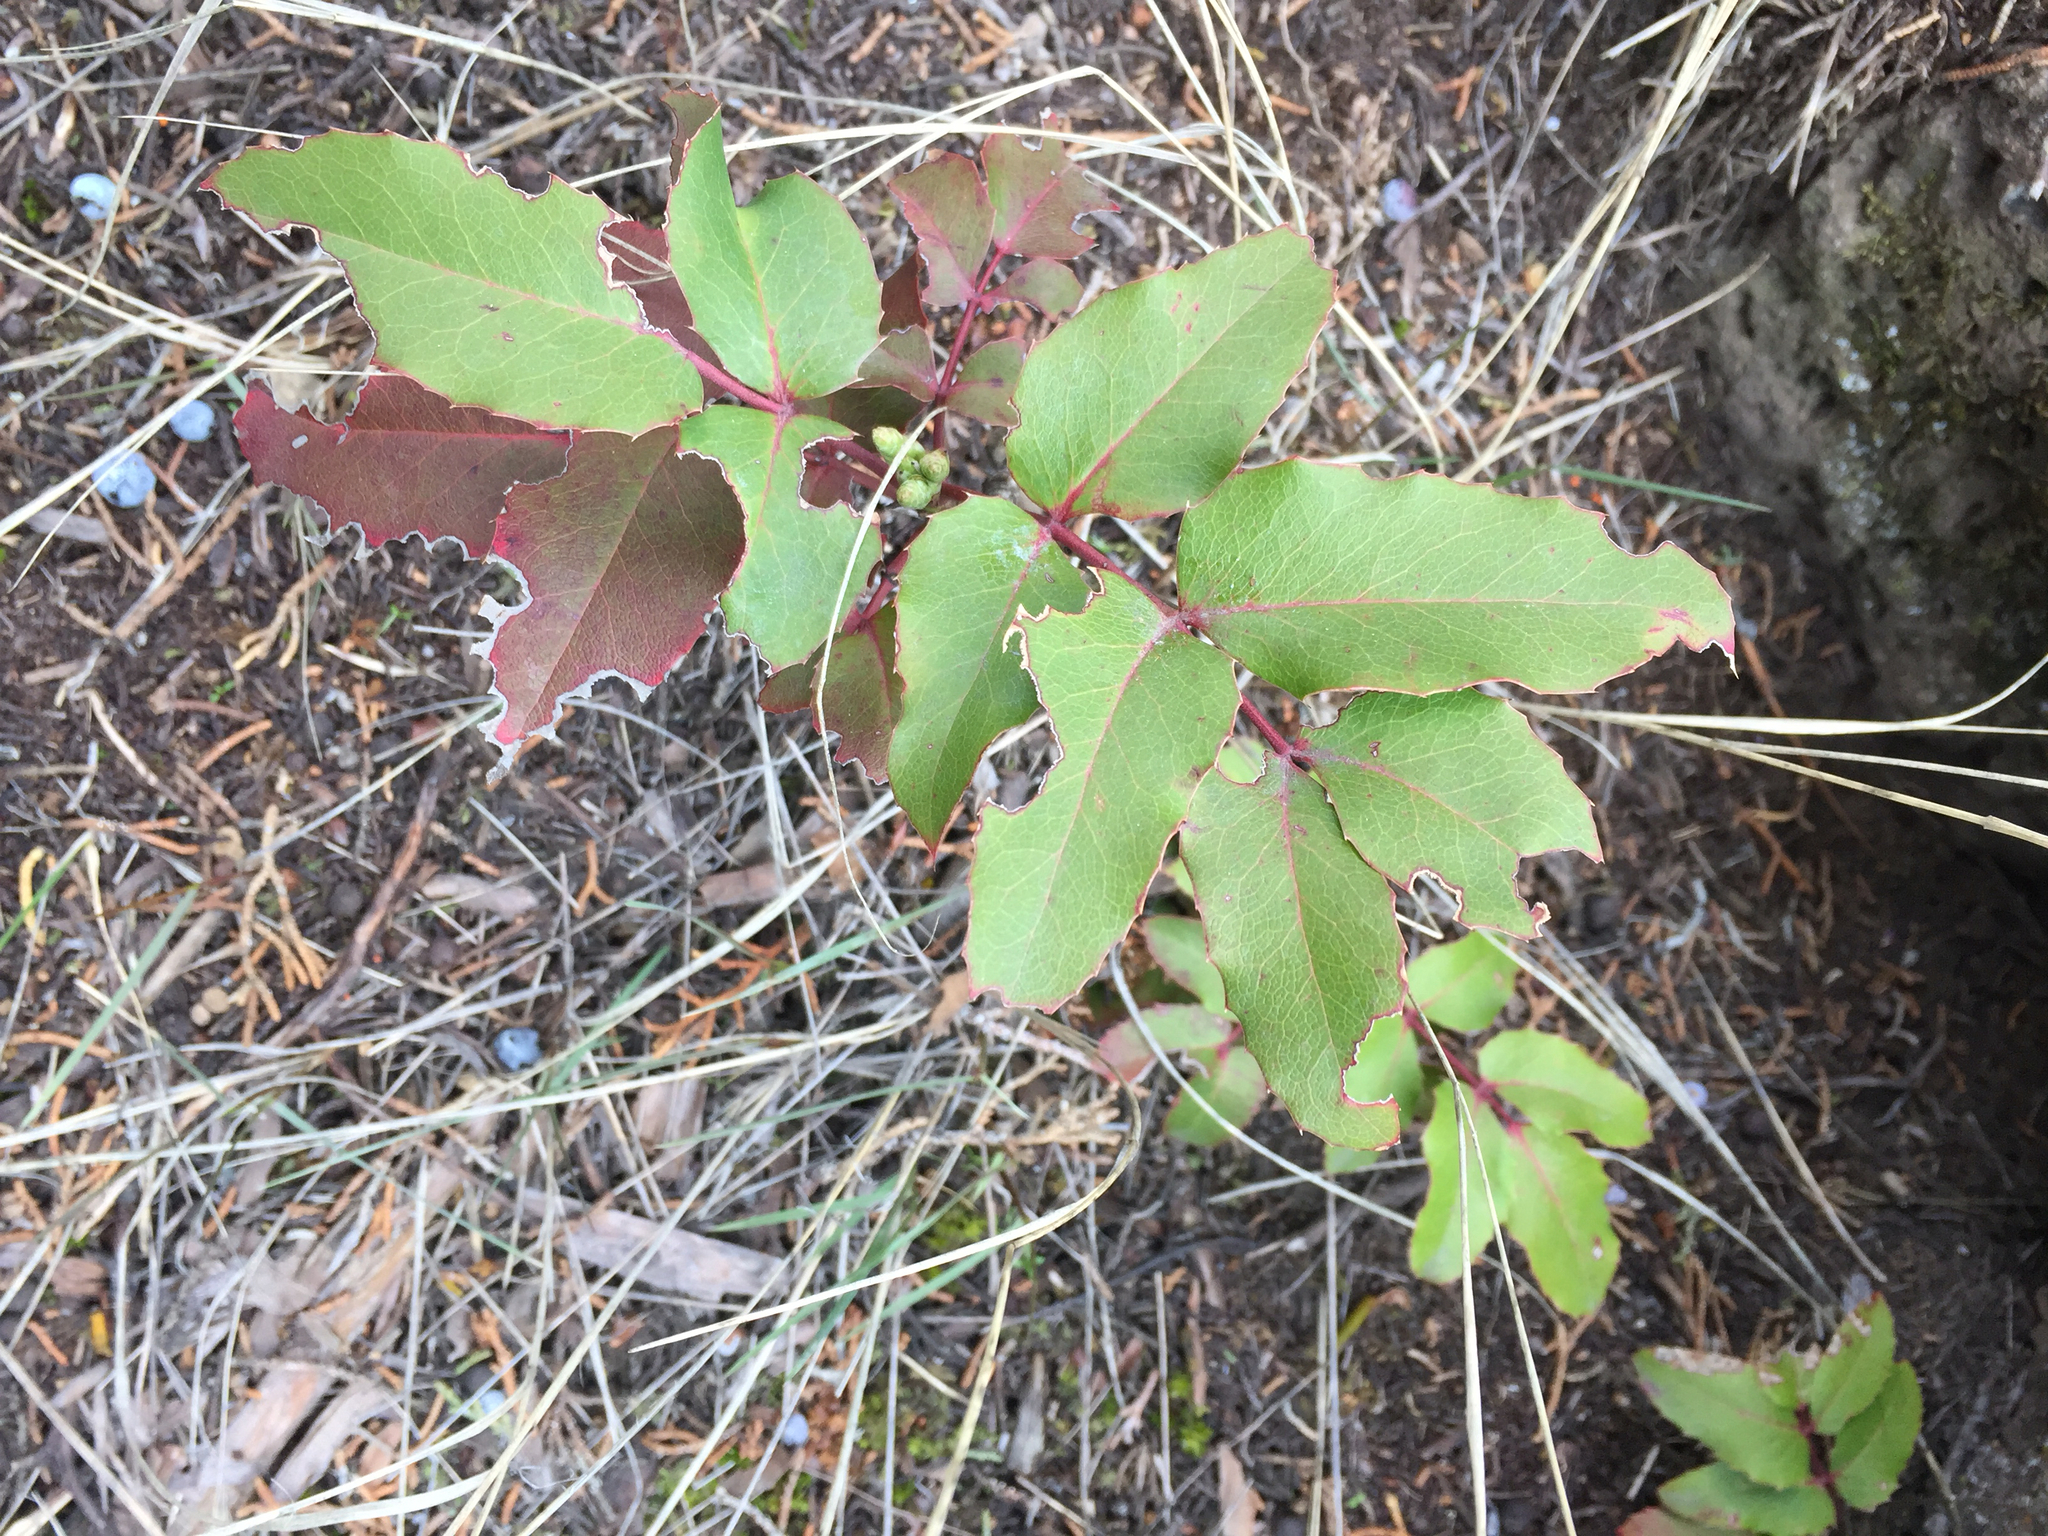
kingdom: Plantae
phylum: Tracheophyta
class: Magnoliopsida
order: Ranunculales
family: Berberidaceae
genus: Mahonia
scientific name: Mahonia repens
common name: Creeping oregon-grape
